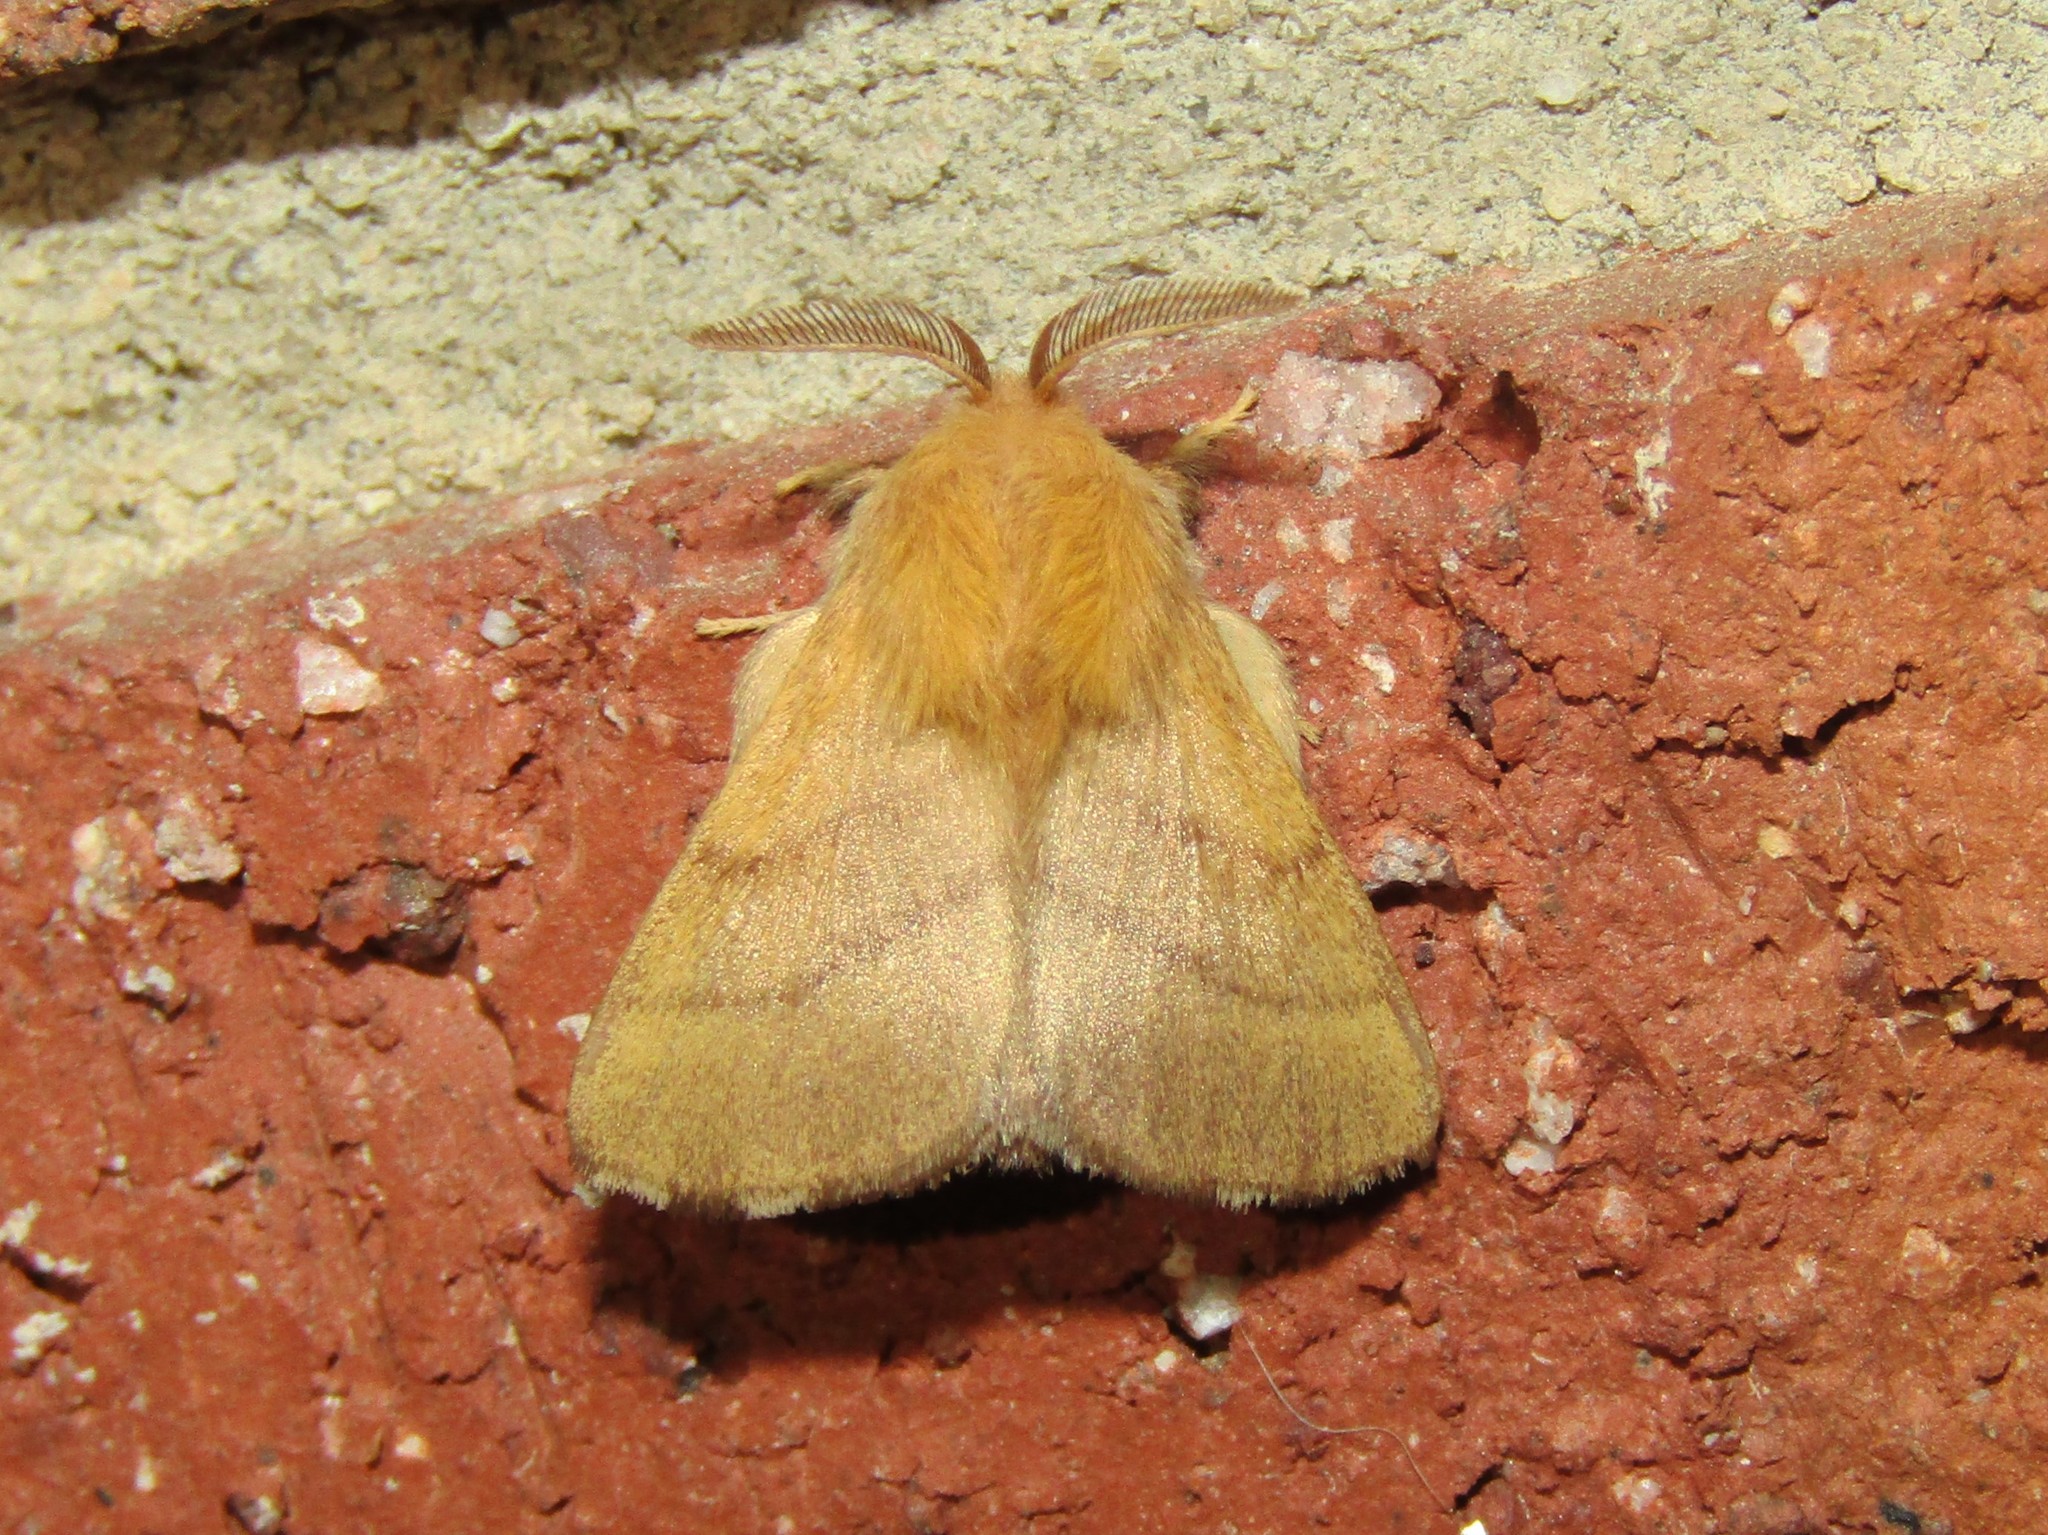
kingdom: Animalia
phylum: Arthropoda
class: Insecta
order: Lepidoptera
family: Lasiocampidae
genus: Malacosoma
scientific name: Malacosoma disstria
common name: Forest tent caterpillar
